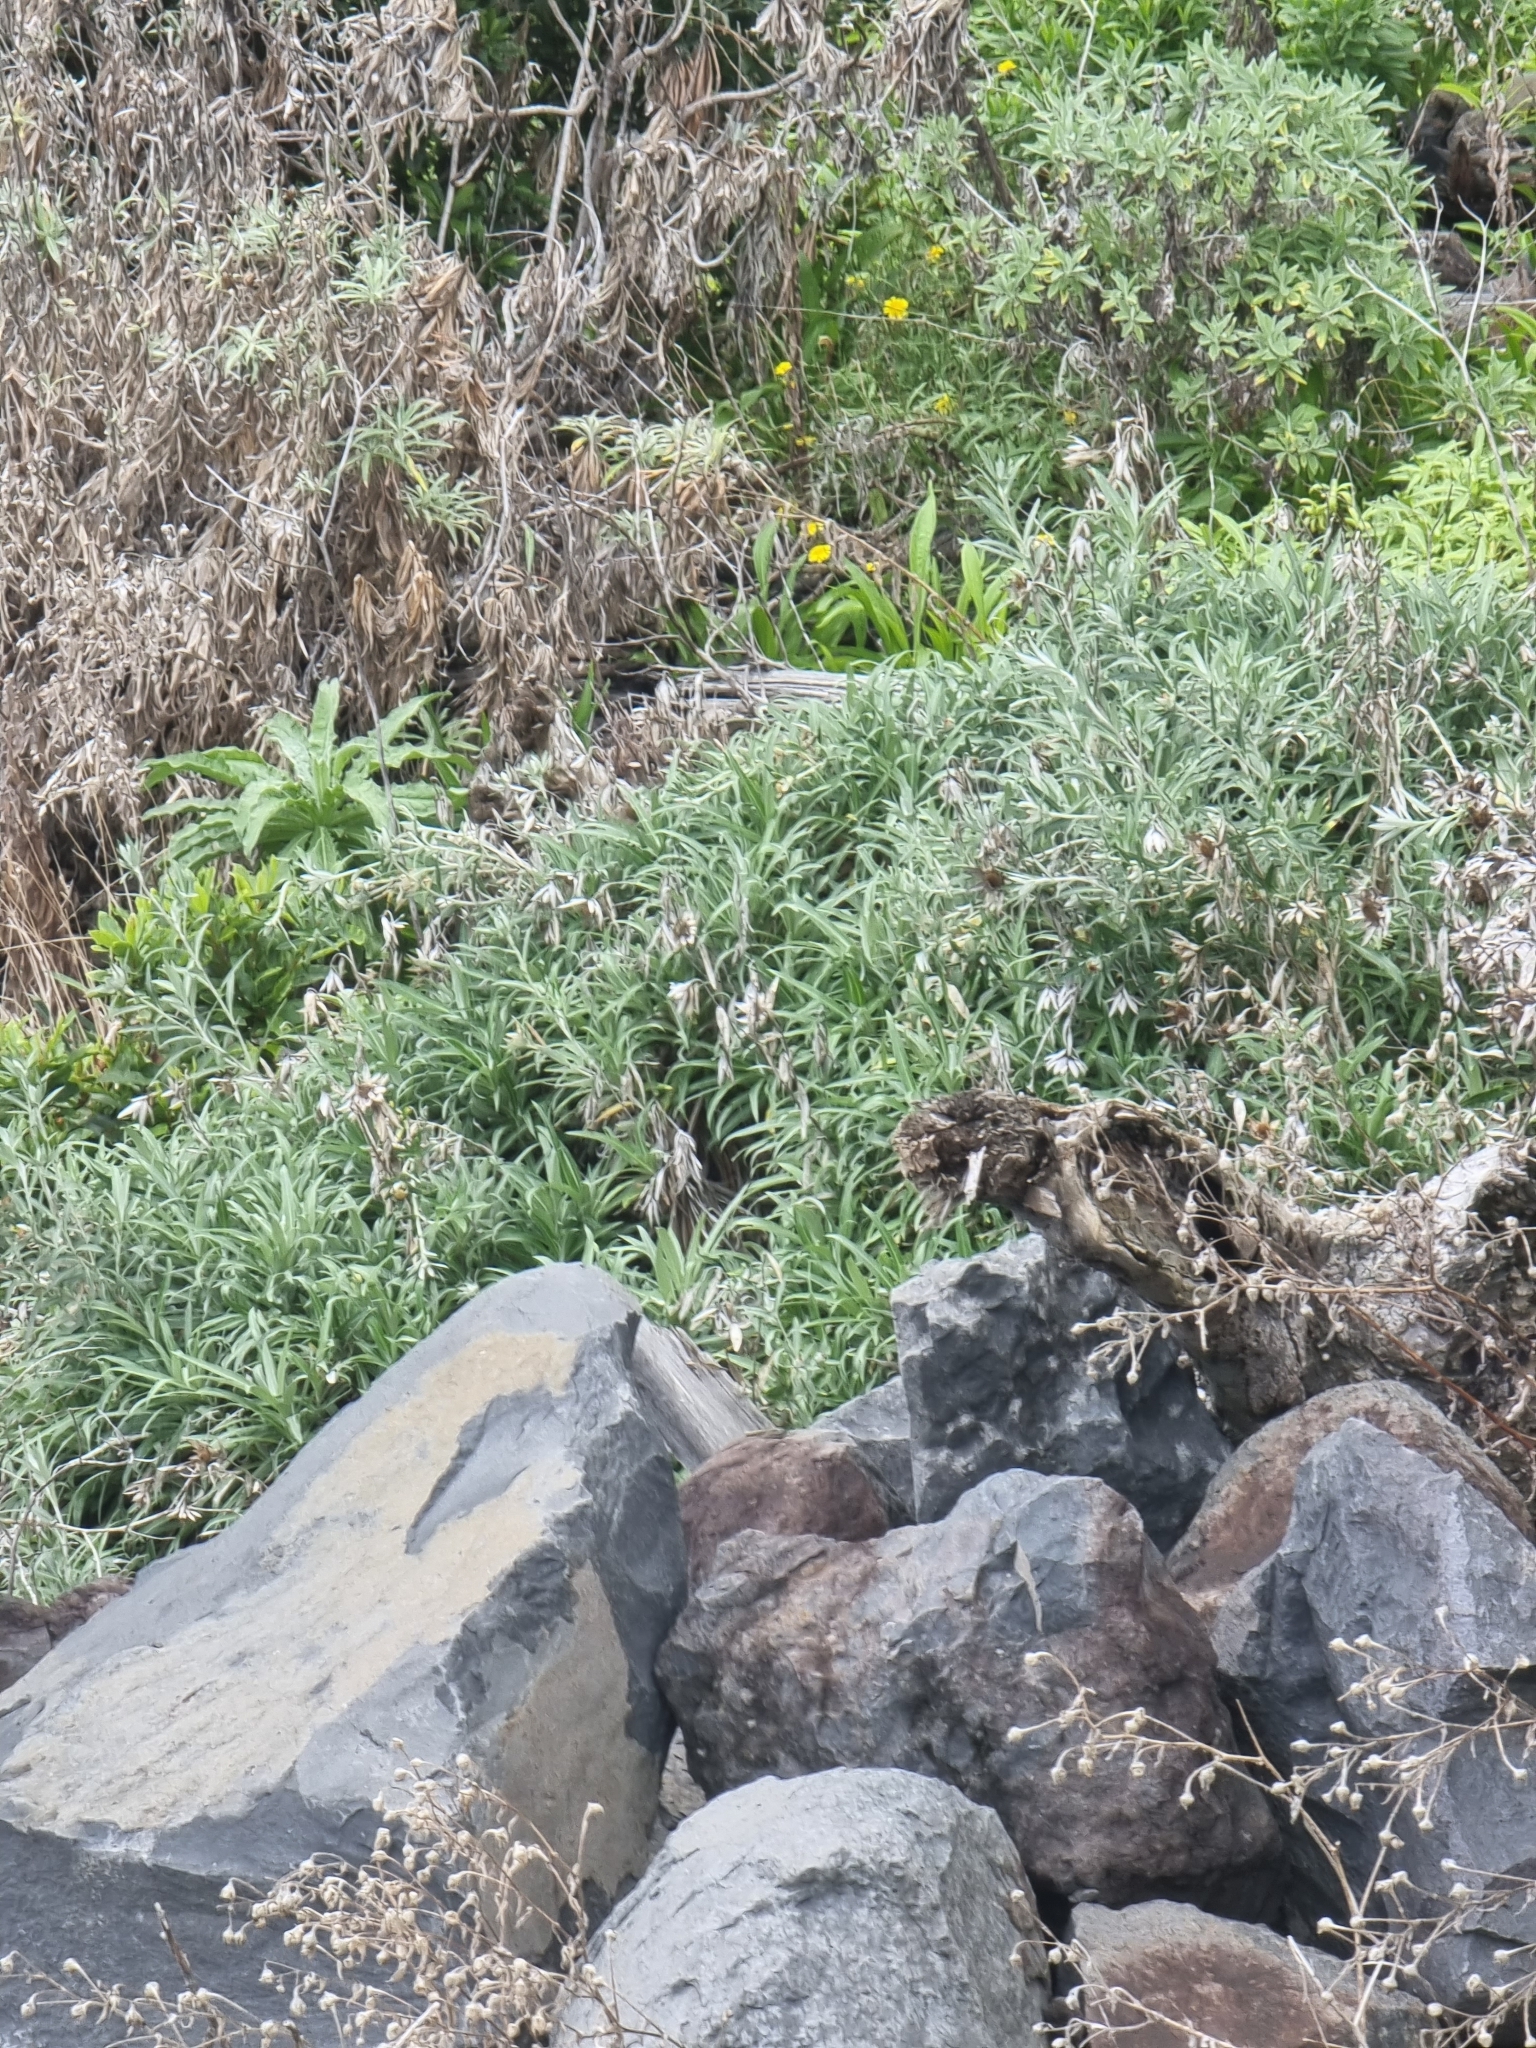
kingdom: Plantae
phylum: Tracheophyta
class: Magnoliopsida
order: Asterales
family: Asteraceae
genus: Carlina
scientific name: Carlina salicifolia
